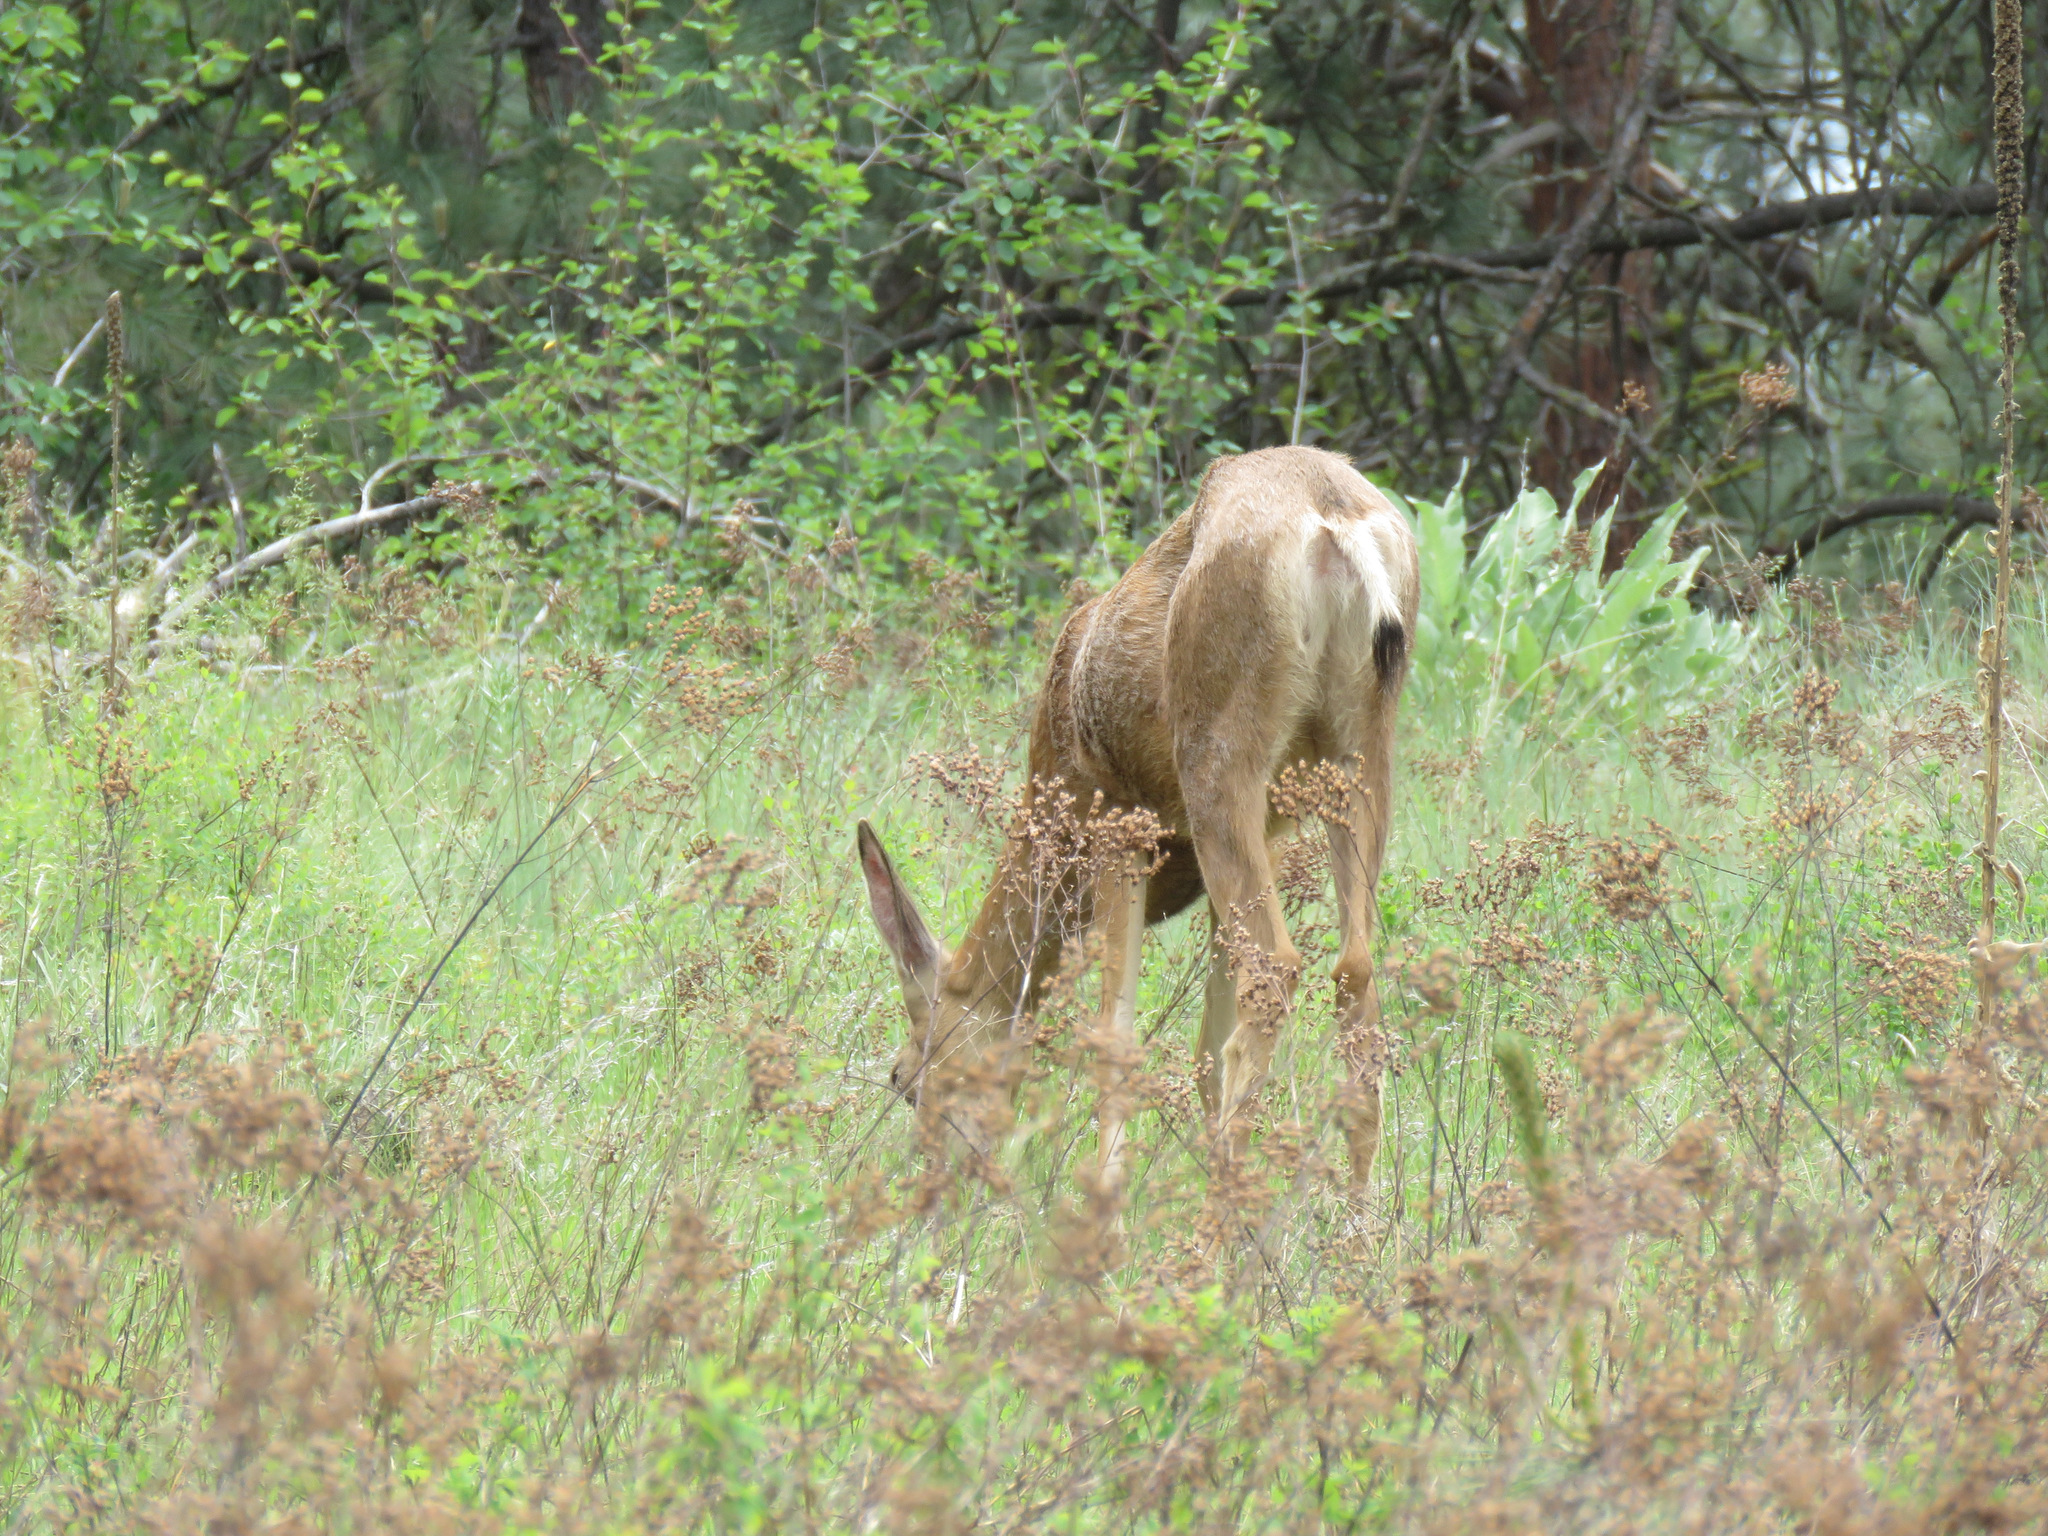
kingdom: Animalia
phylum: Chordata
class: Mammalia
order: Artiodactyla
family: Cervidae
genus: Odocoileus
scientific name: Odocoileus hemionus
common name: Mule deer
